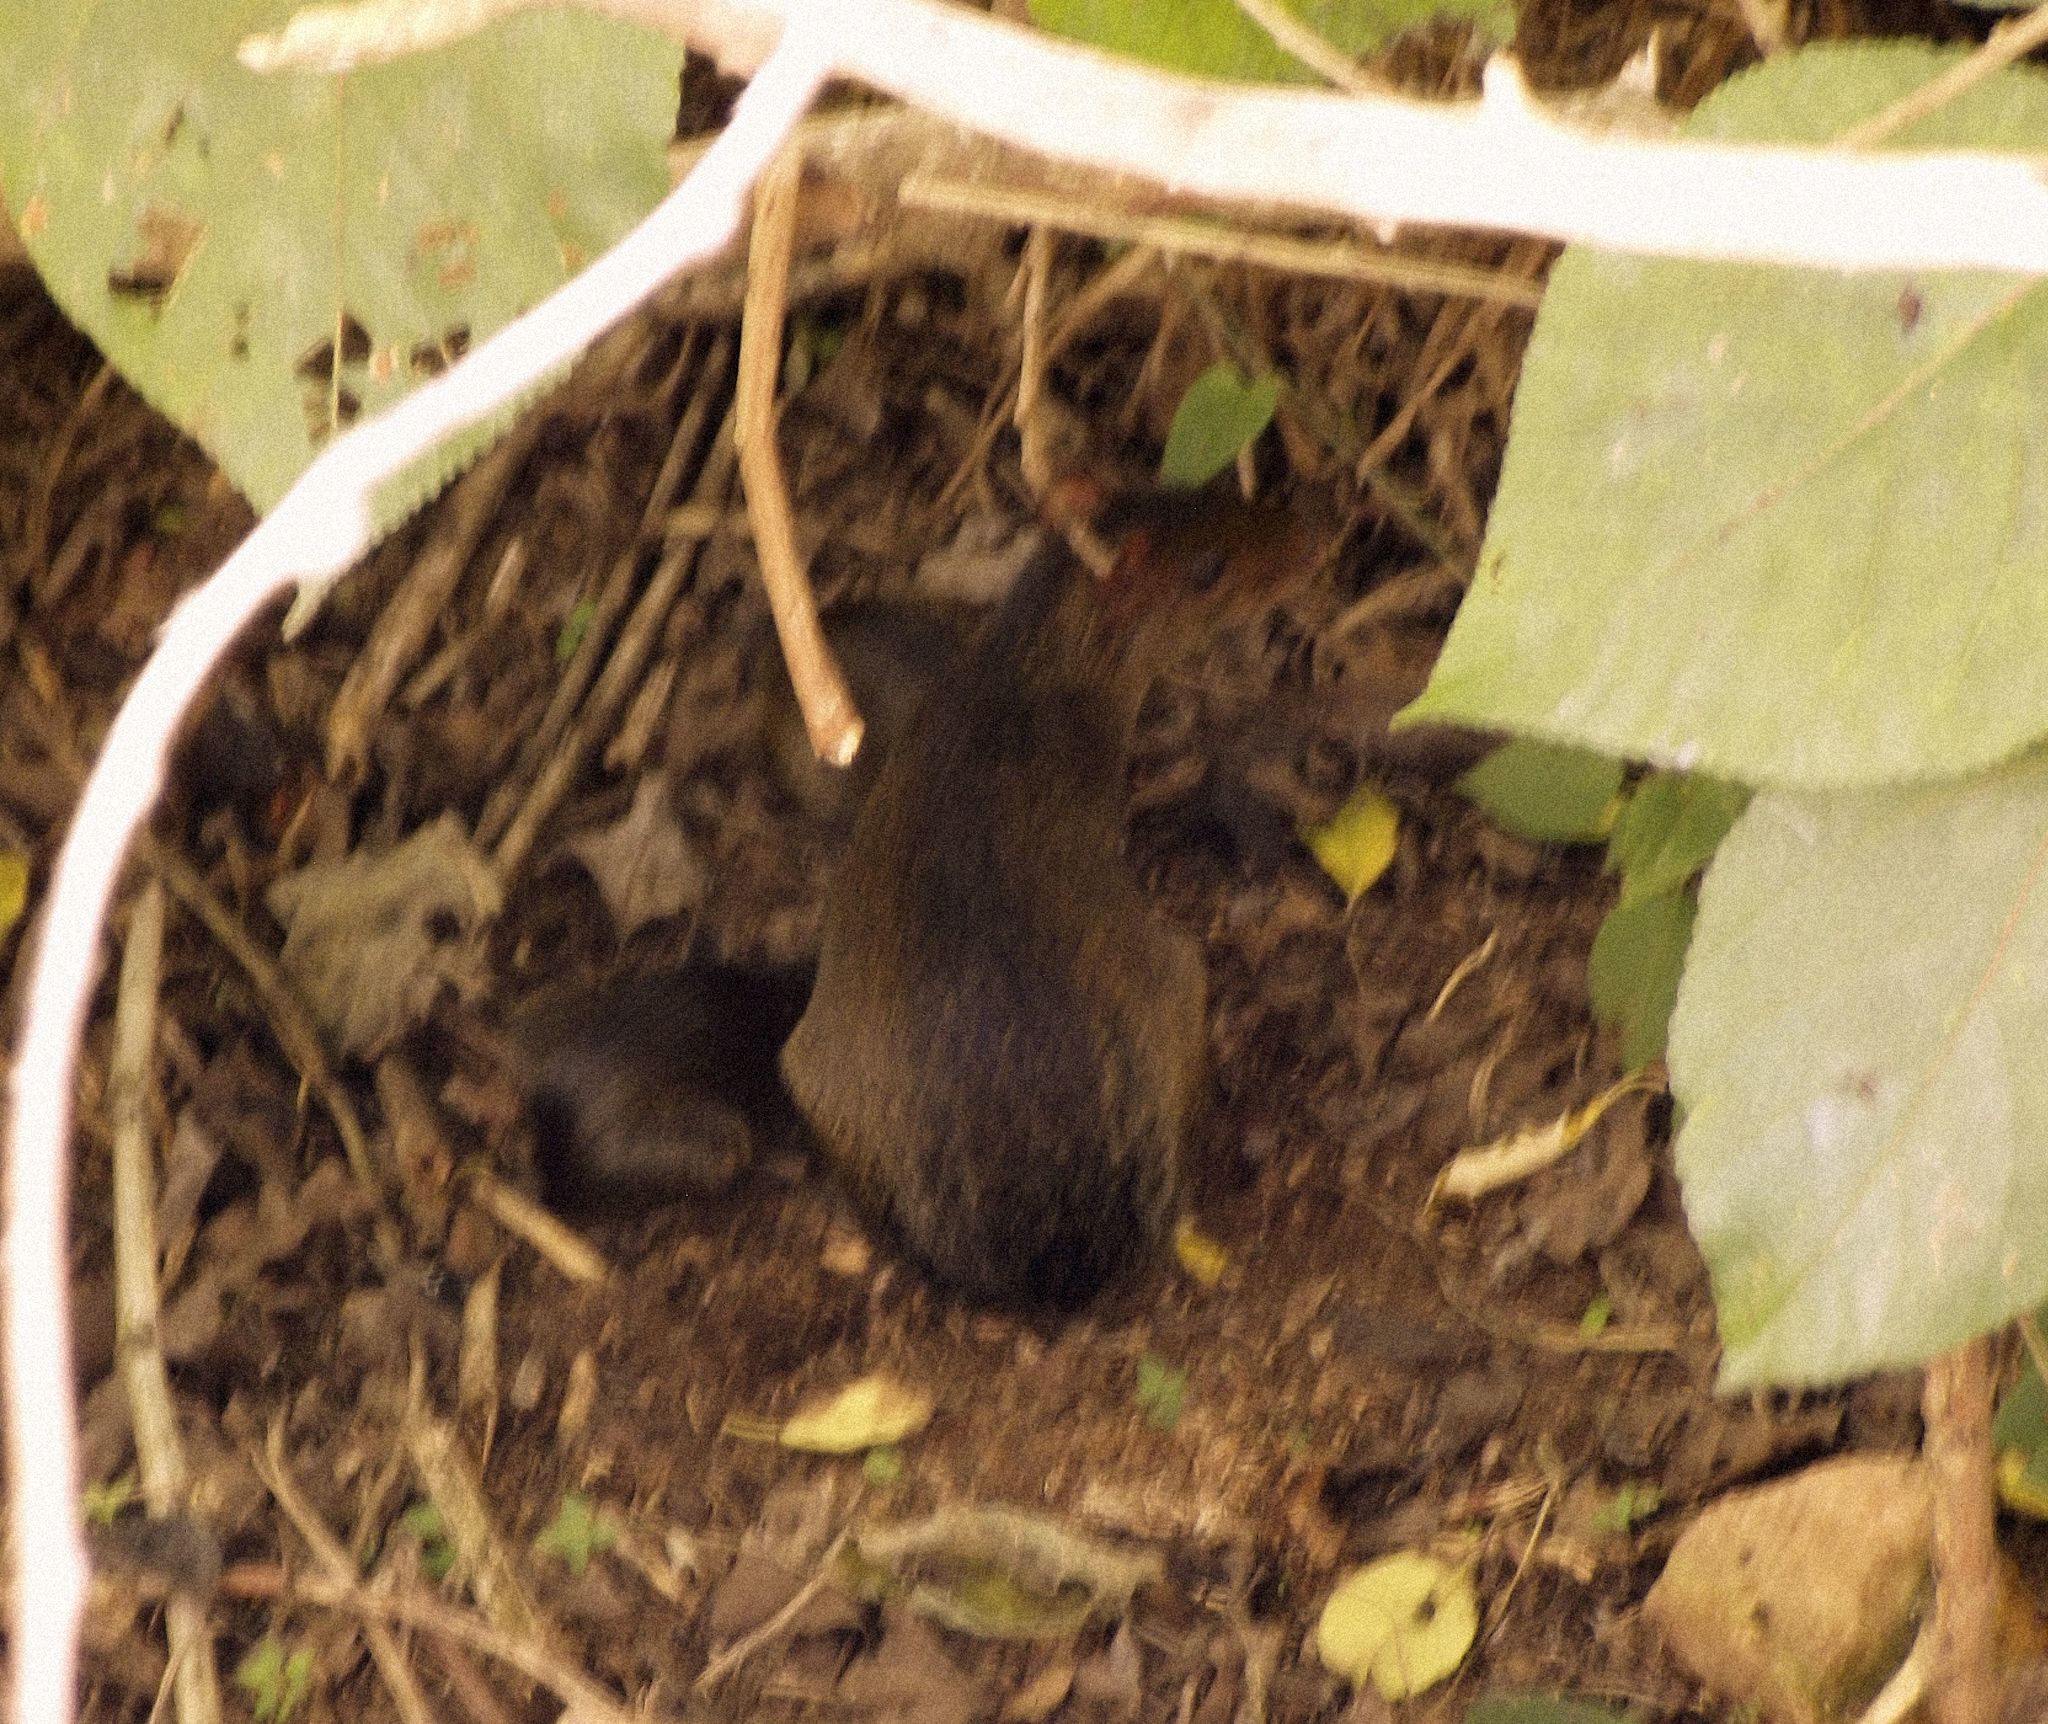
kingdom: Animalia
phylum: Chordata
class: Mammalia
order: Rodentia
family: Dasyproctidae
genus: Dasyprocta
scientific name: Dasyprocta punctata
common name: Central american agouti
